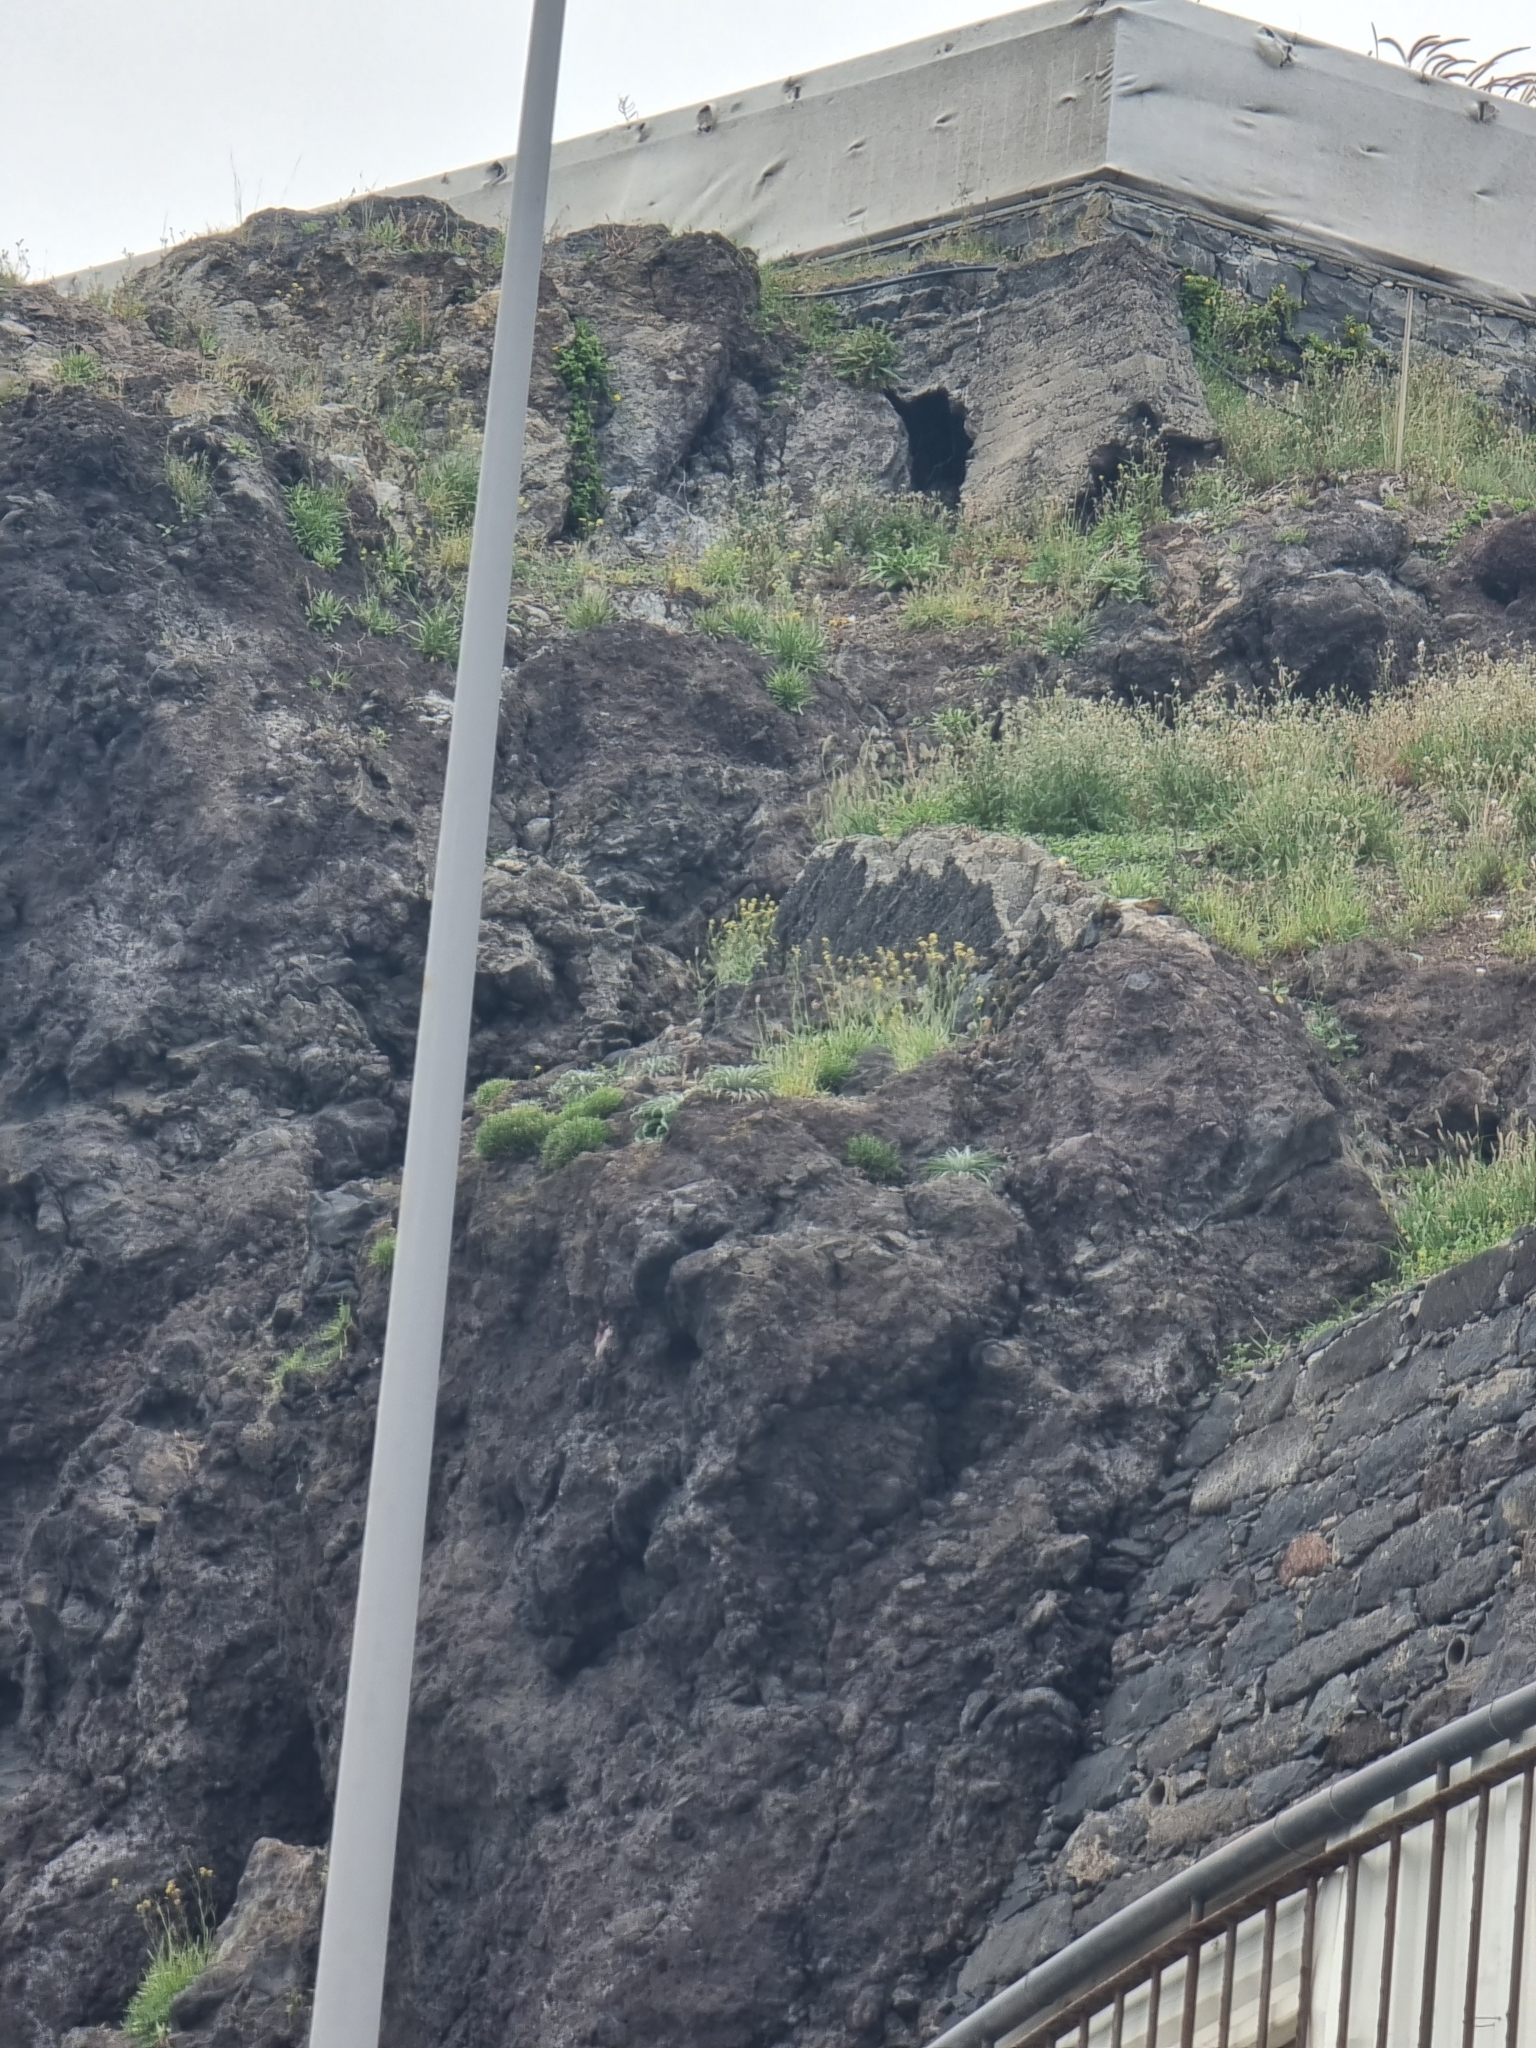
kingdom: Plantae
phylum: Tracheophyta
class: Magnoliopsida
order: Brassicales
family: Brassicaceae
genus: Sinapidendron
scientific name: Sinapidendron angustifolium
